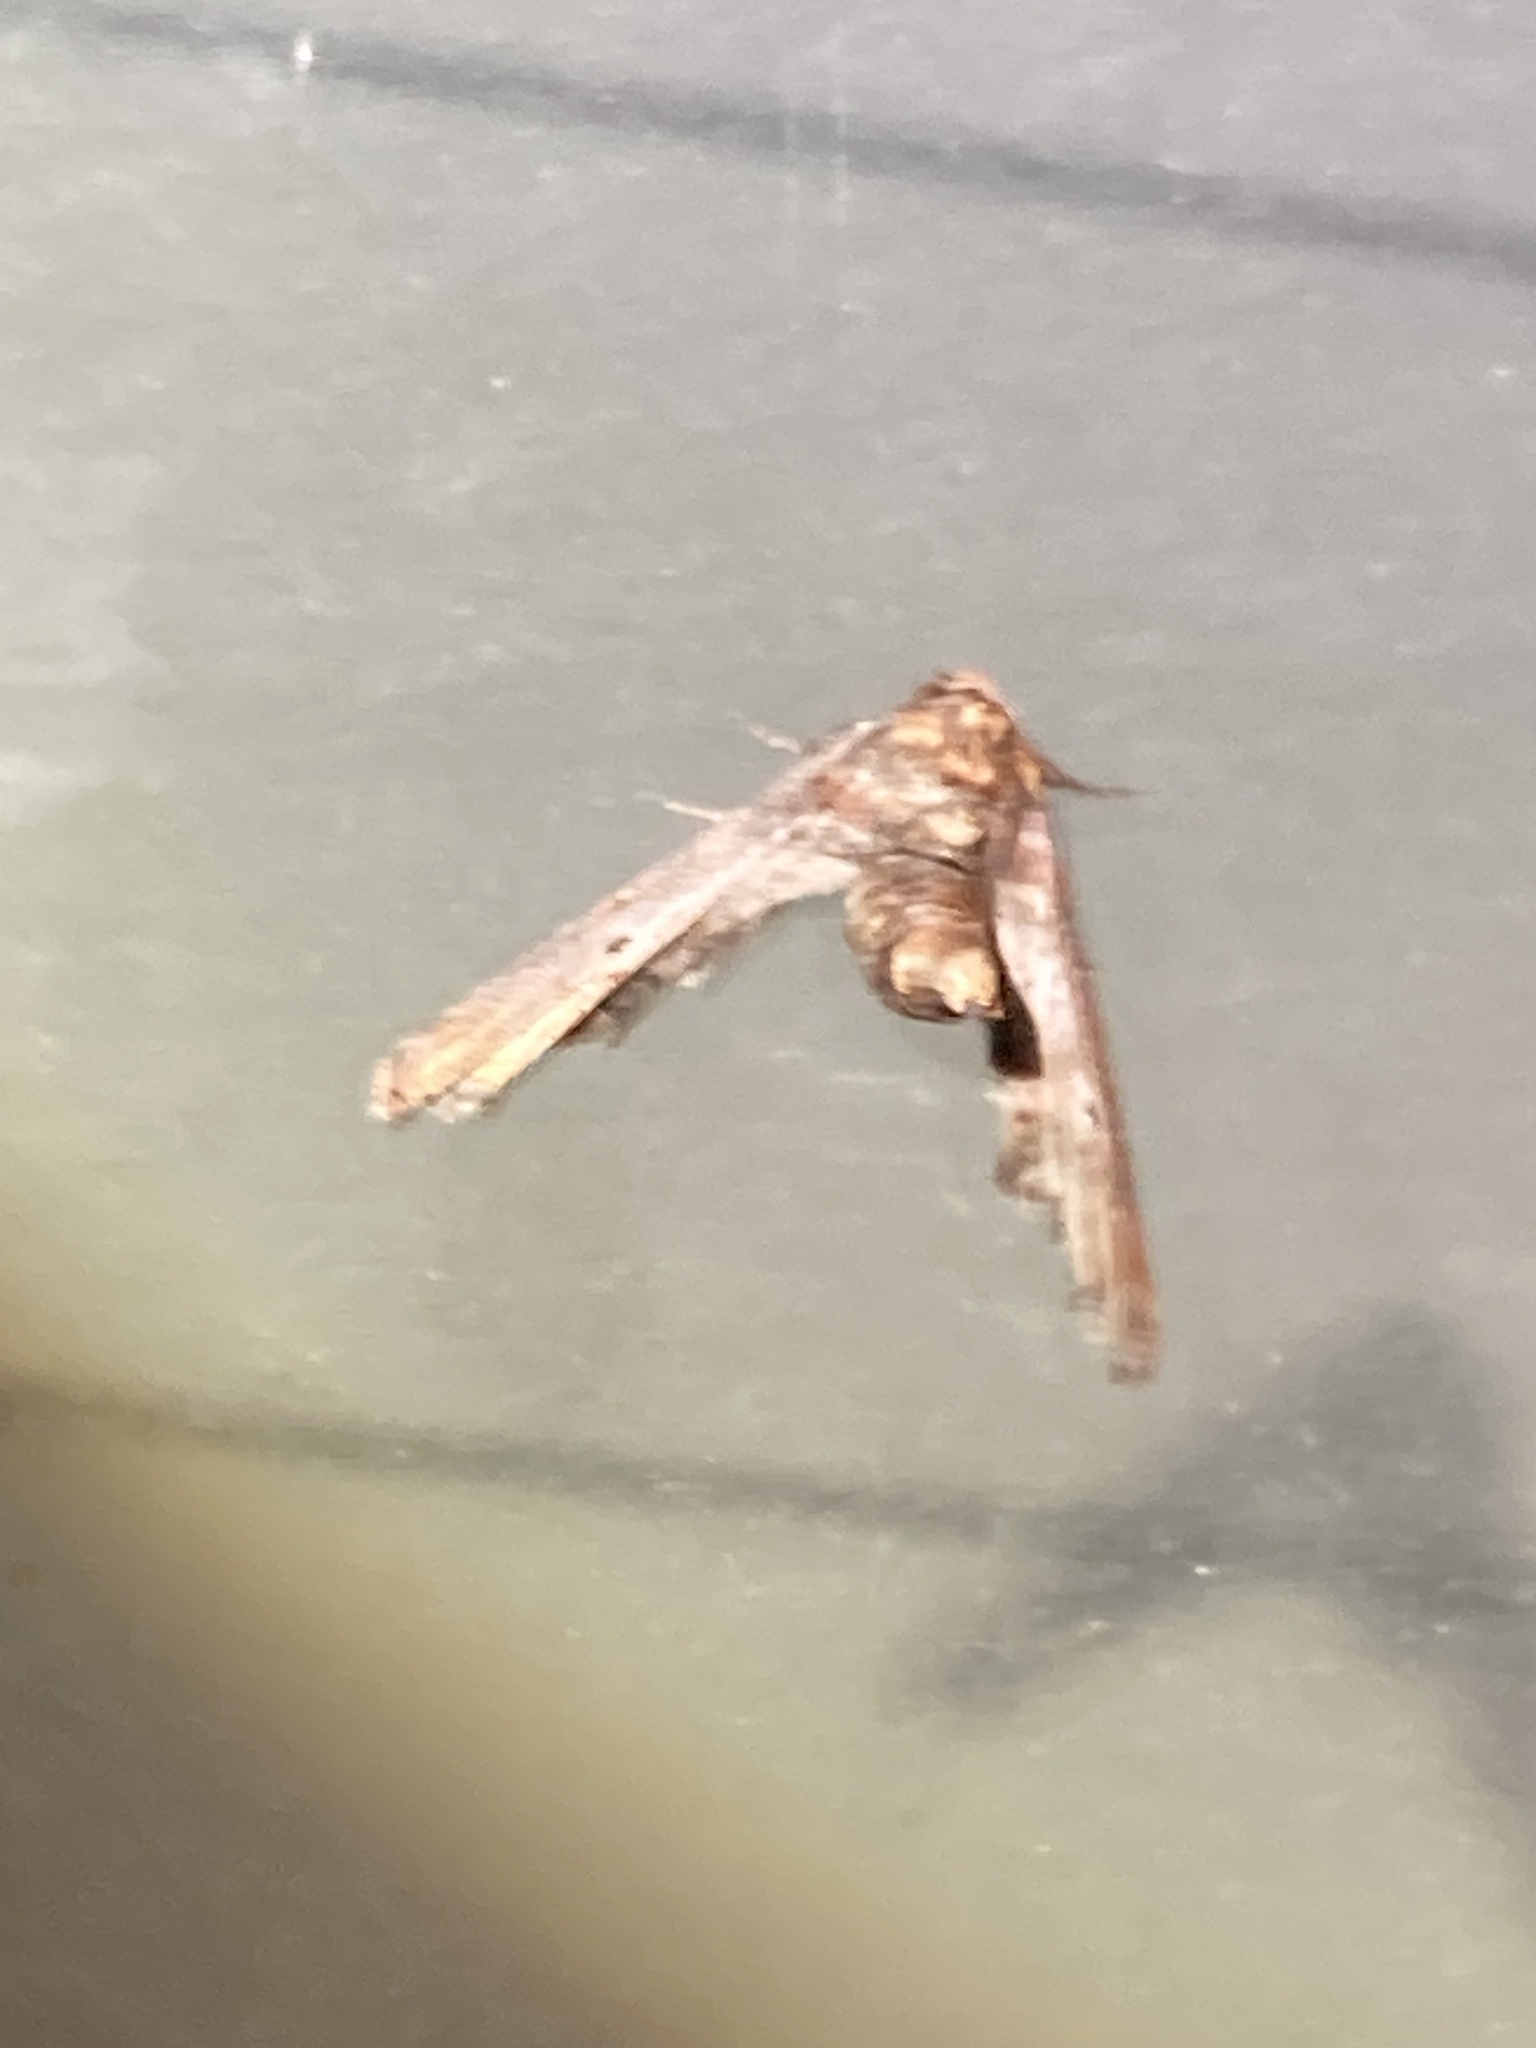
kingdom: Animalia
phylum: Arthropoda
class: Insecta
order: Lepidoptera
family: Euteliidae
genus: Marathyssa
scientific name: Marathyssa inficita
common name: Dark marathyssa moth
